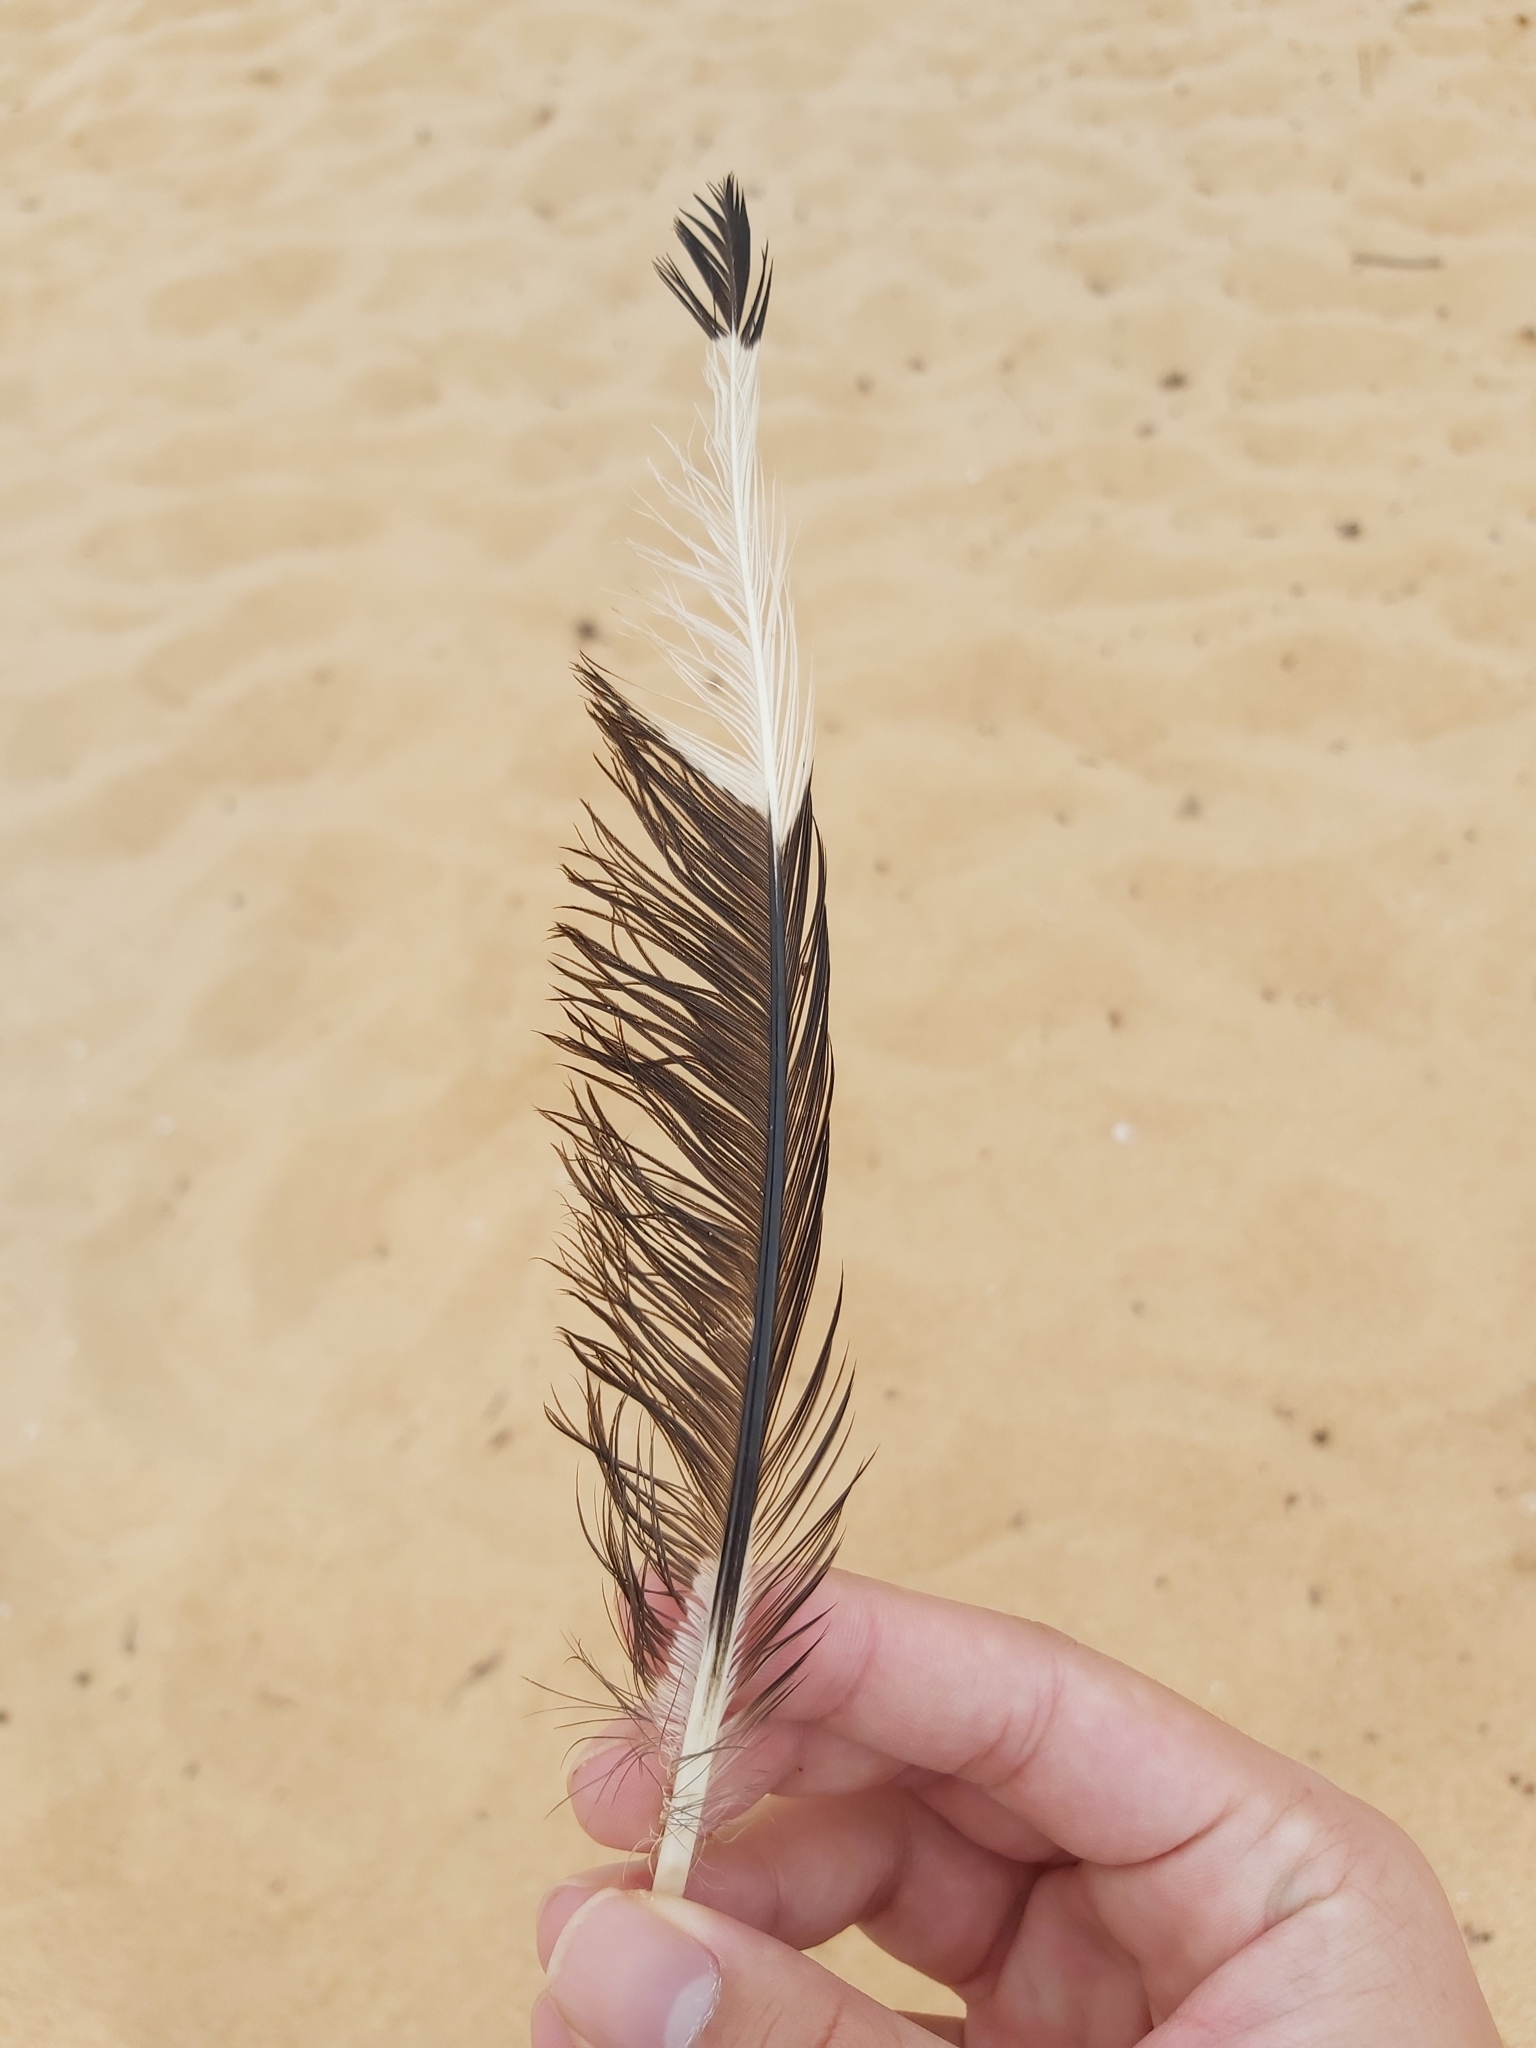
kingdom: Animalia
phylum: Chordata
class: Aves
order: Charadriiformes
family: Laridae
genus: Chroicocephalus
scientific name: Chroicocephalus novaehollandiae
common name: Silver gull
